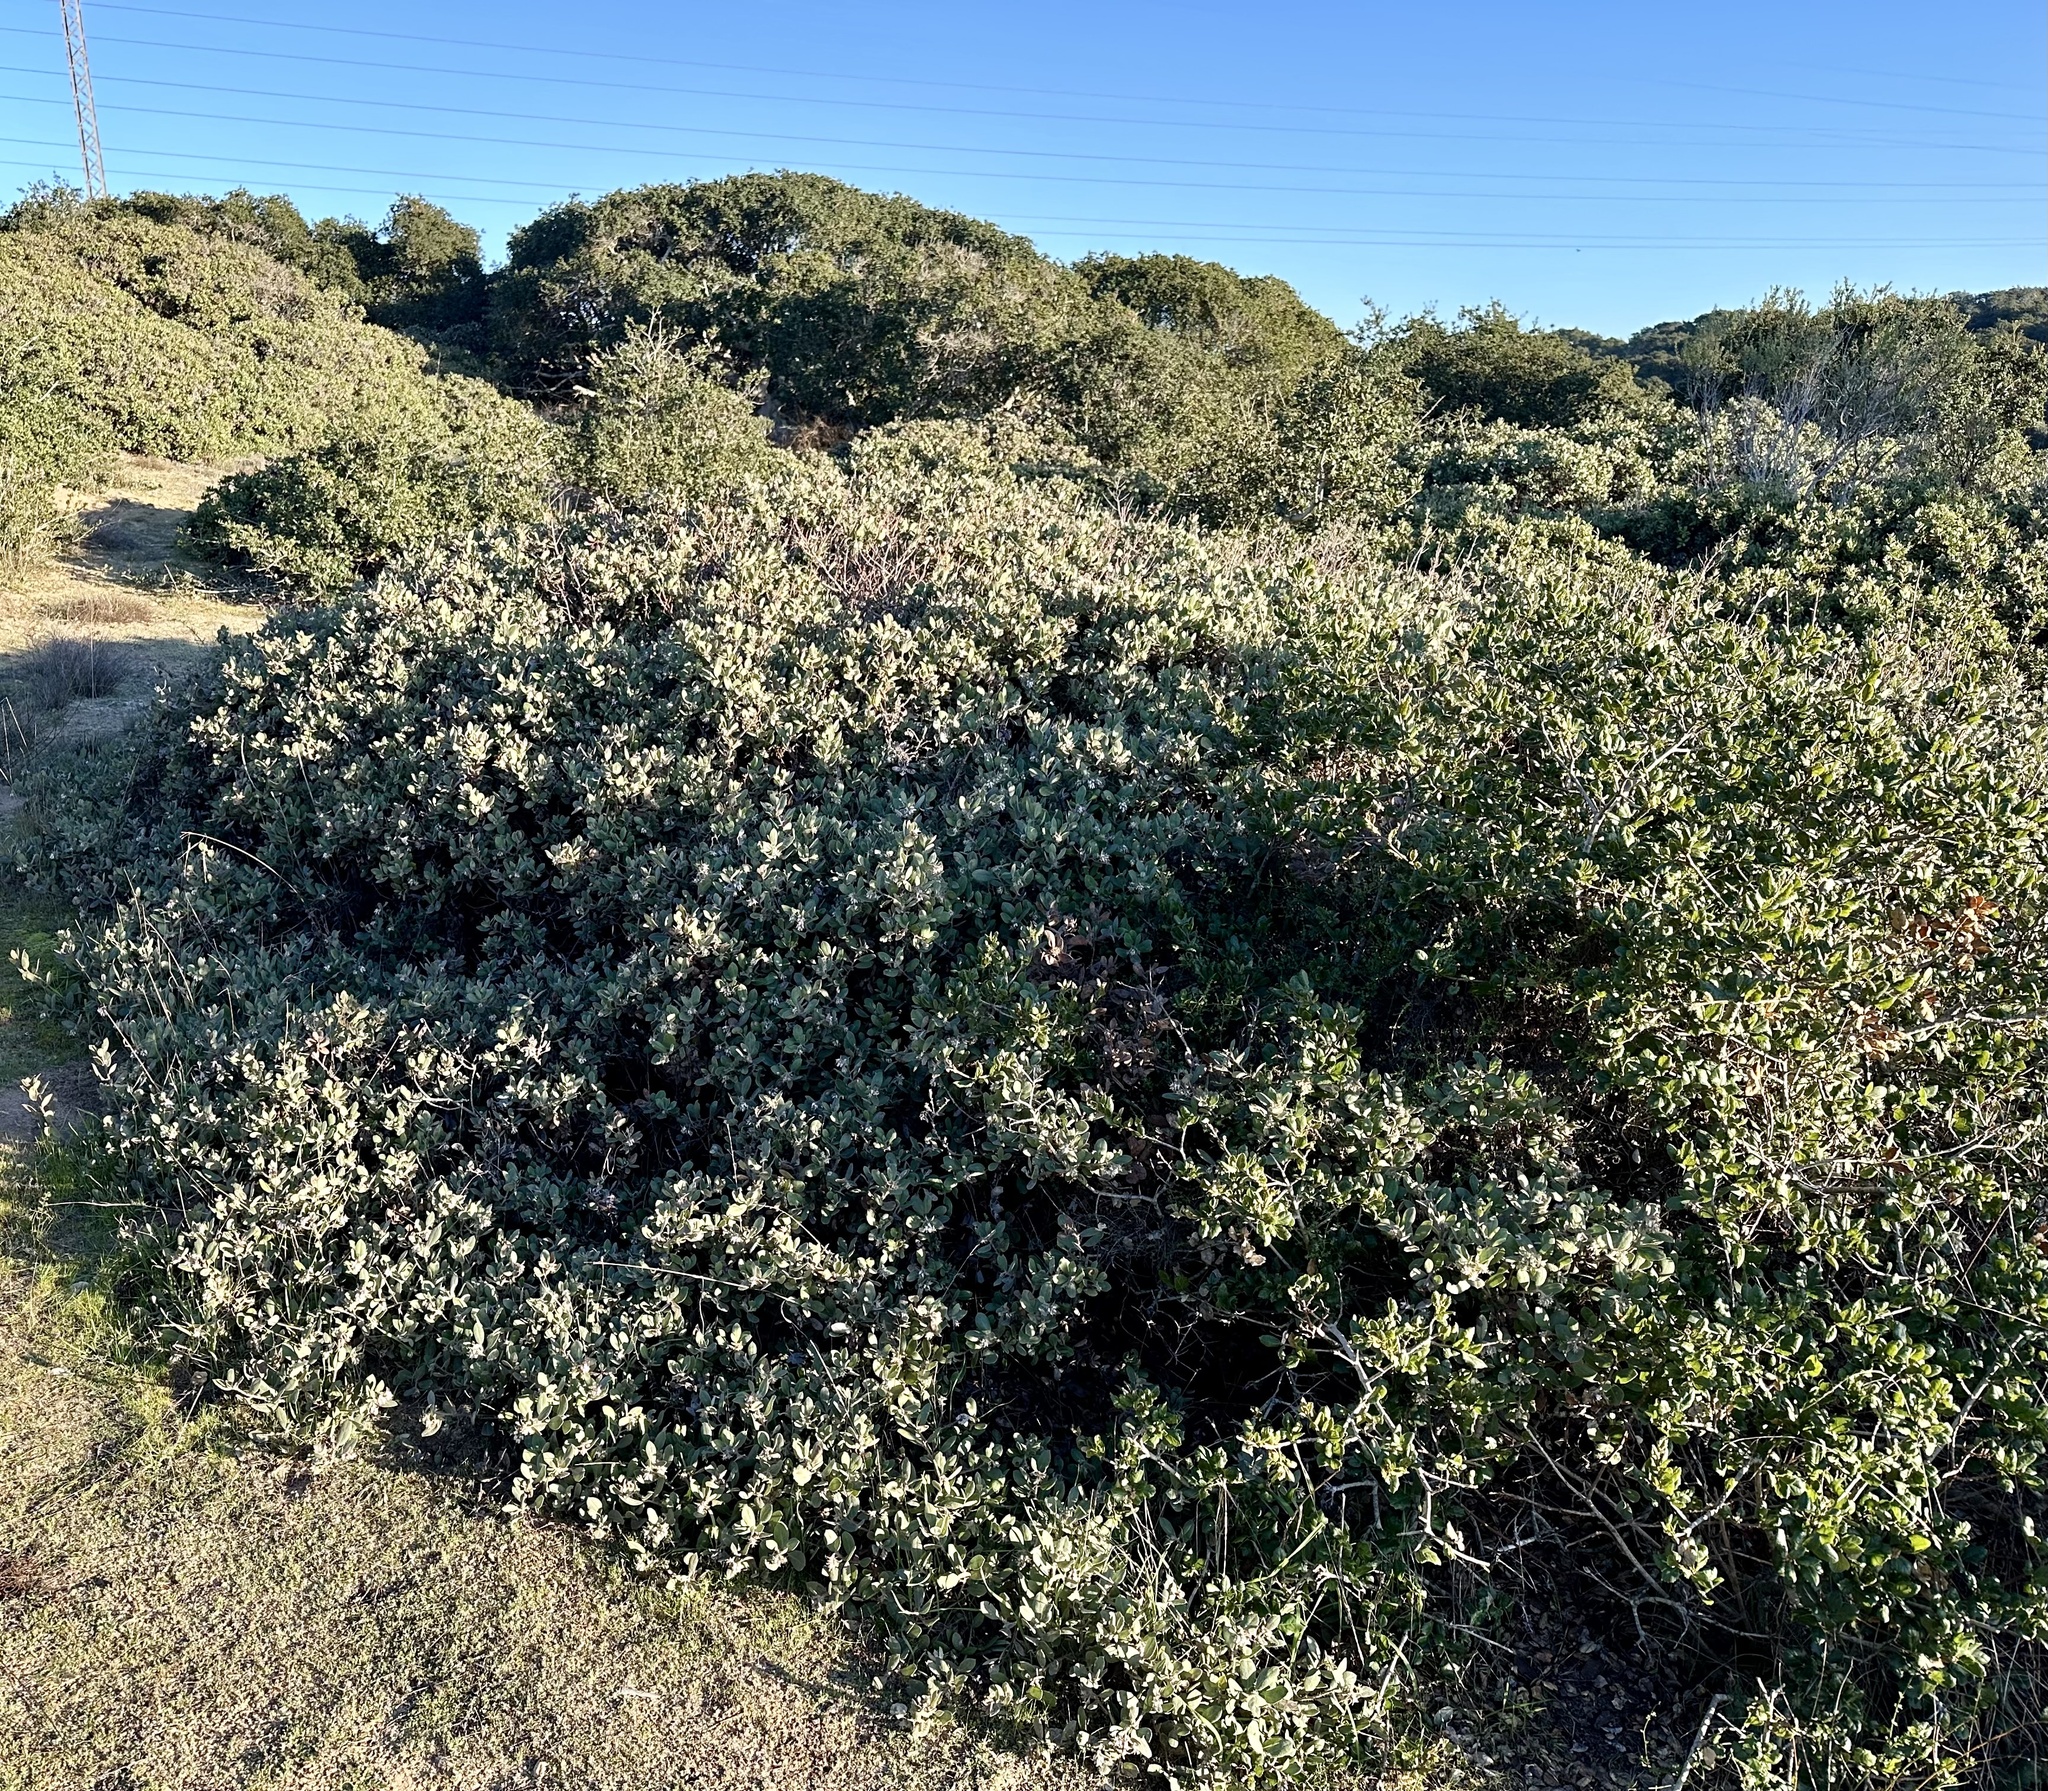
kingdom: Plantae
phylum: Tracheophyta
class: Magnoliopsida
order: Ericales
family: Ericaceae
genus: Arctostaphylos
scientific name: Arctostaphylos tomentosa
